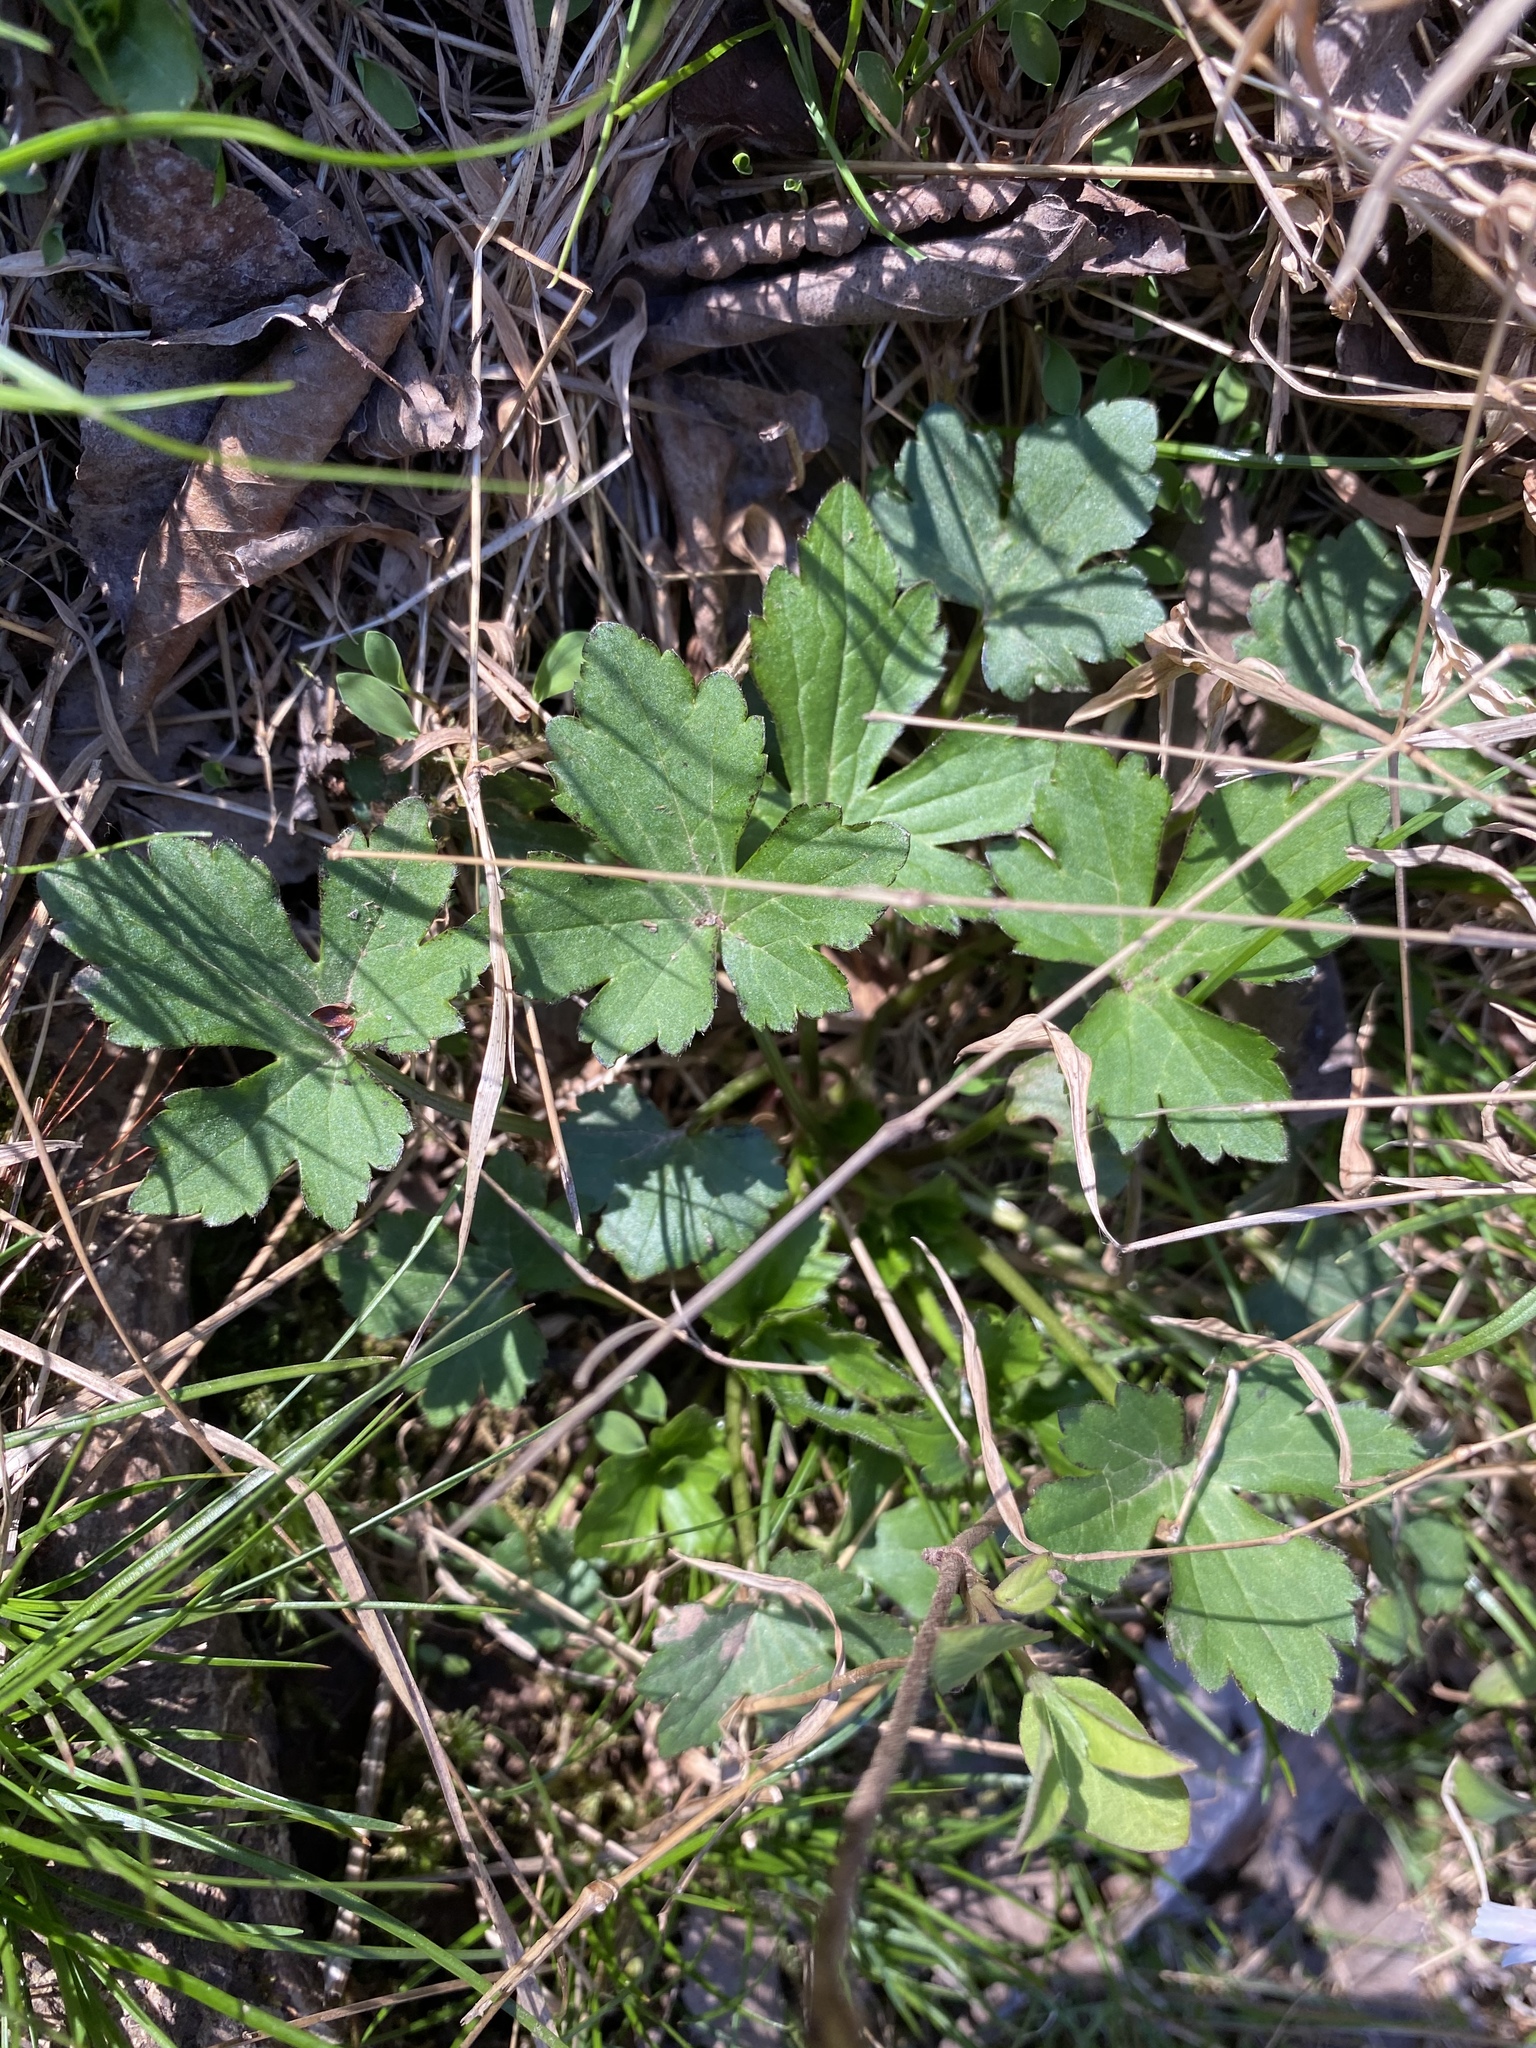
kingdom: Plantae
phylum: Tracheophyta
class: Magnoliopsida
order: Ranunculales
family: Ranunculaceae
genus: Ranunculus
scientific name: Ranunculus recurvatus
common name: Blisterwort
